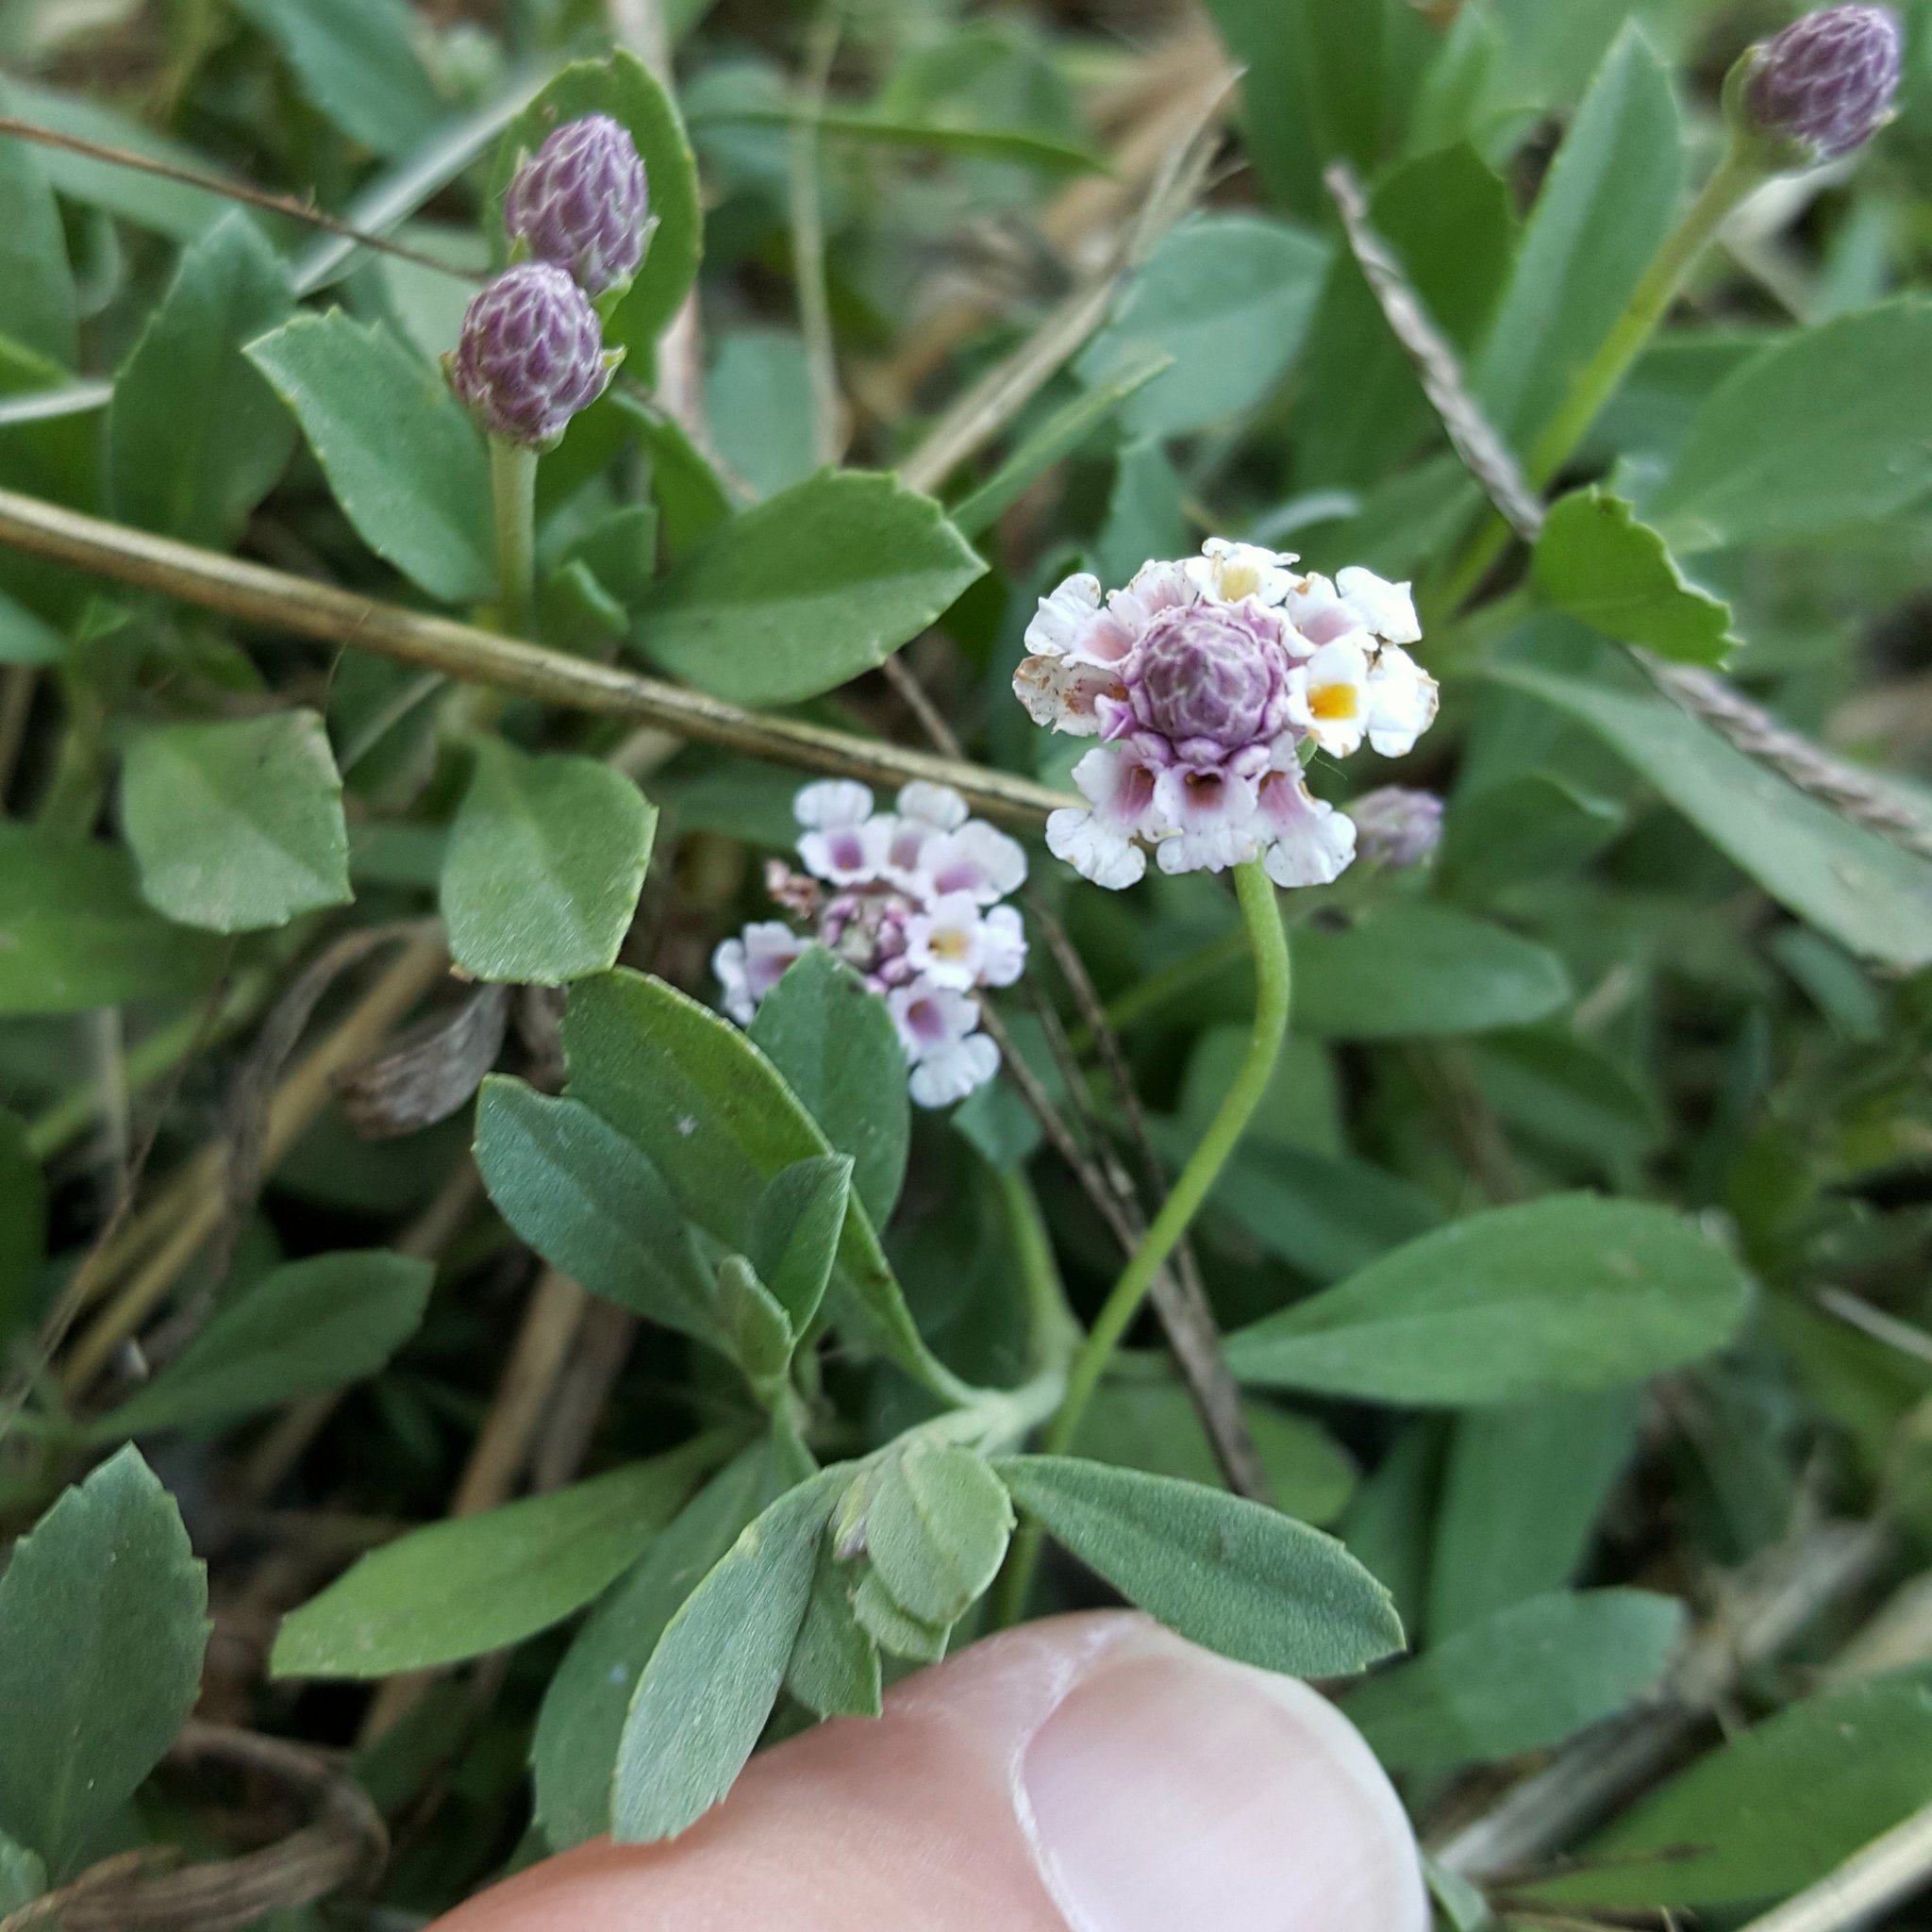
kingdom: Plantae
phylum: Tracheophyta
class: Magnoliopsida
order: Lamiales
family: Verbenaceae
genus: Phyla
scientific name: Phyla nodiflora
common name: Frogfruit
